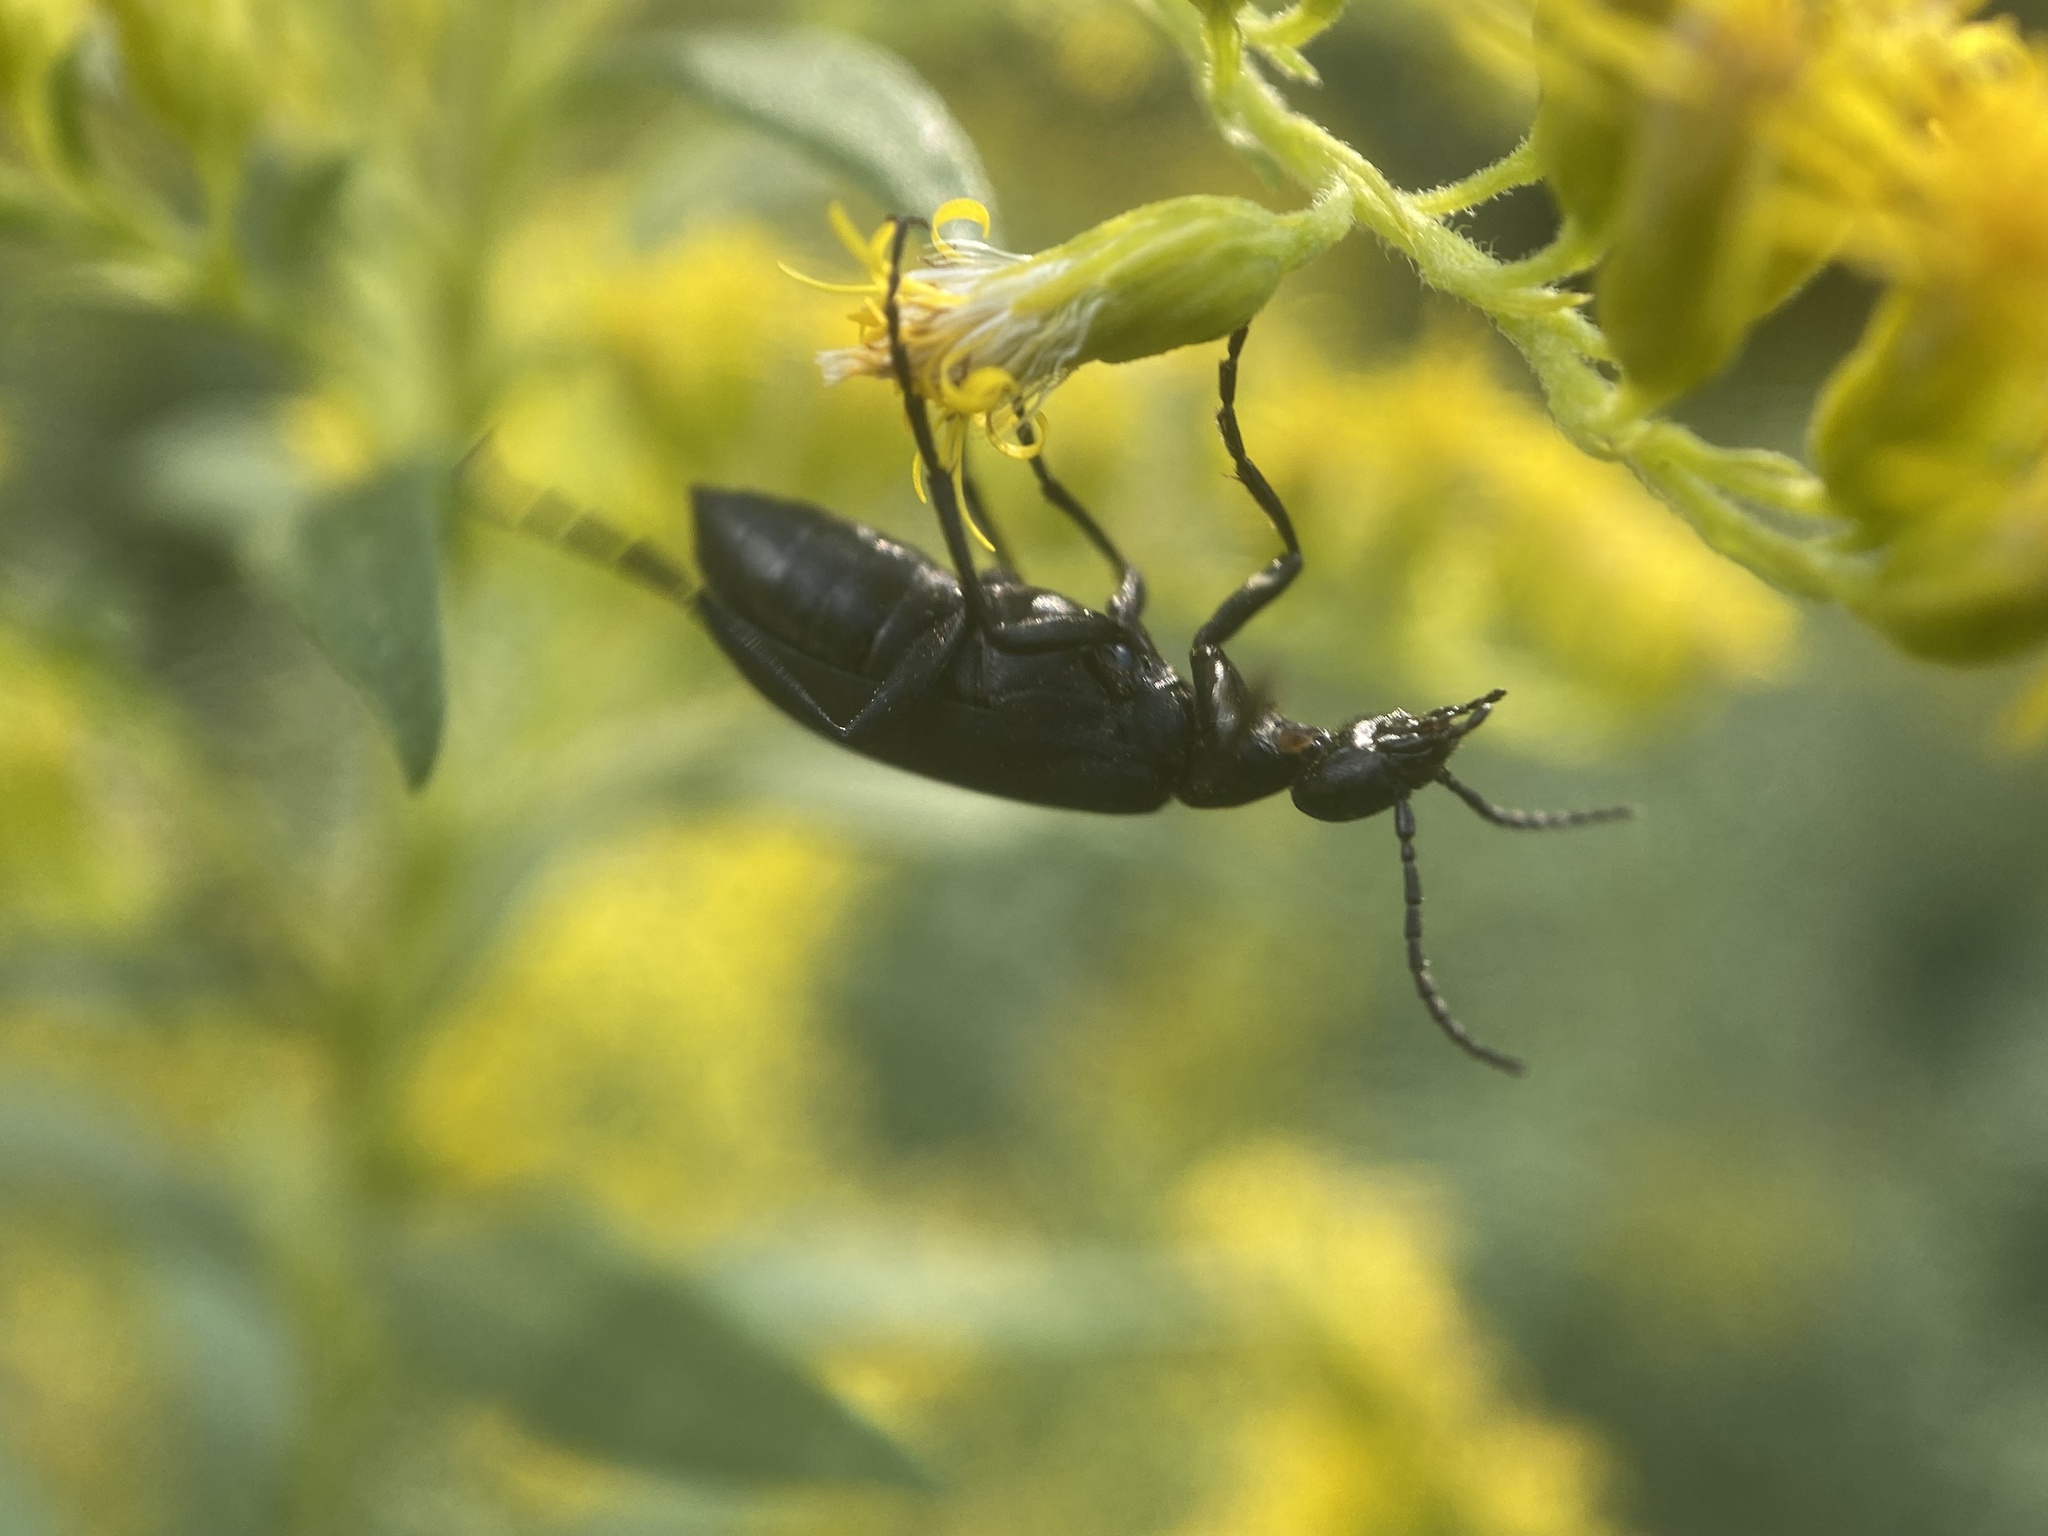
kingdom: Animalia
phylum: Arthropoda
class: Insecta
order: Coleoptera
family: Meloidae
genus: Epicauta
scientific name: Epicauta pensylvanica
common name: Black blister beetle
